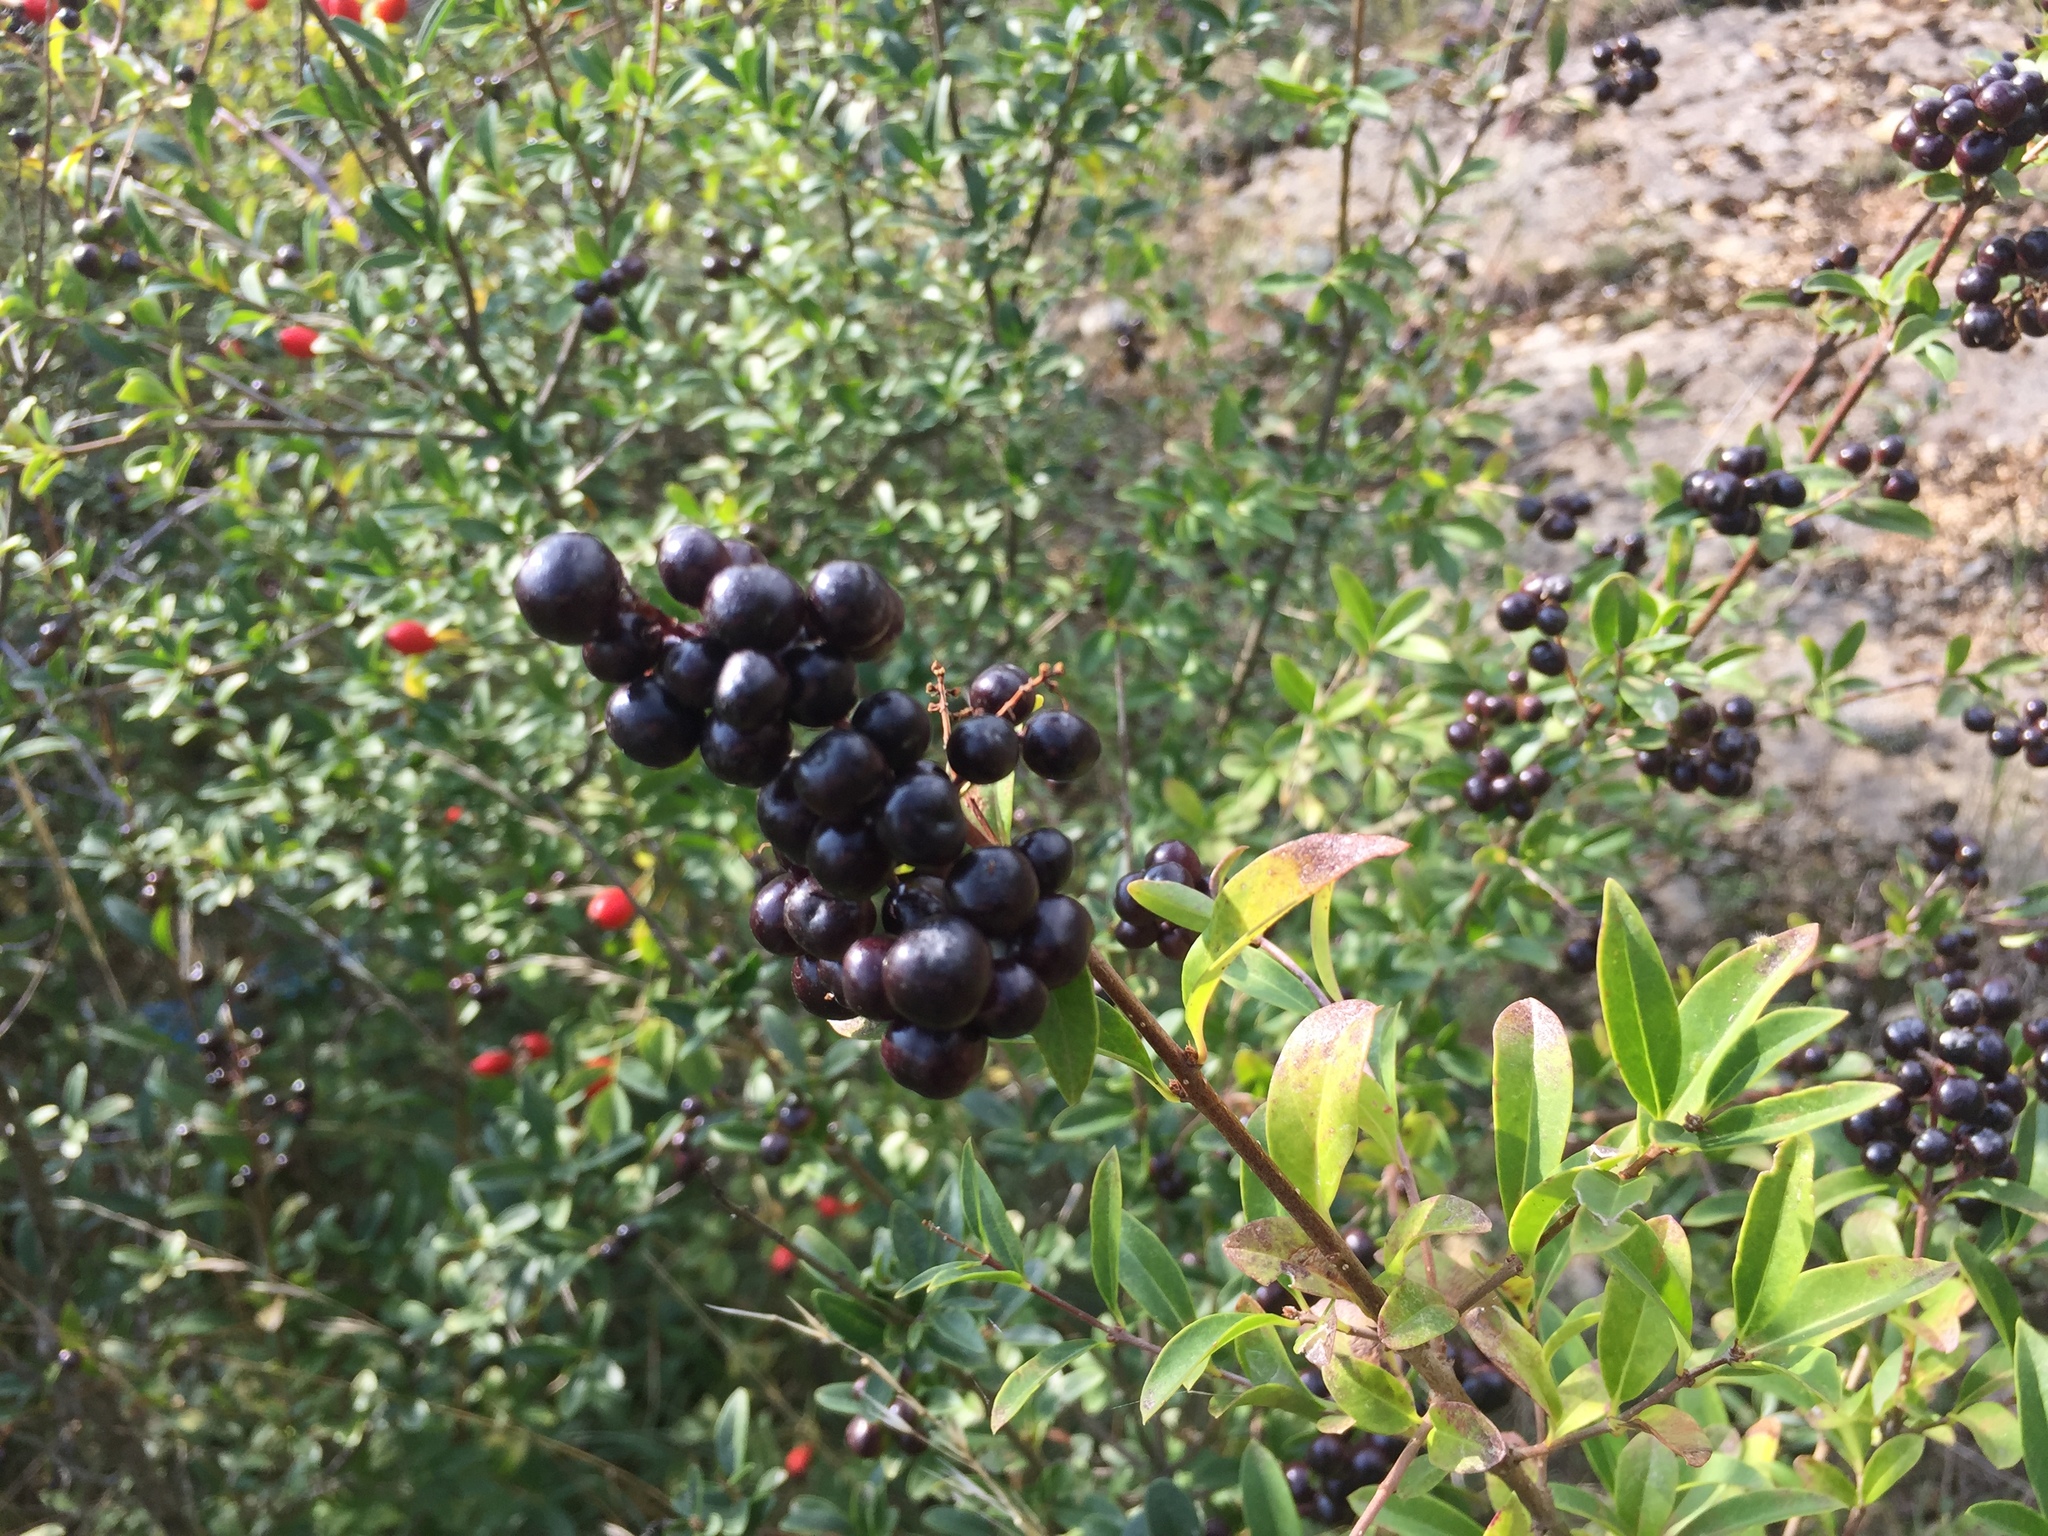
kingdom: Plantae
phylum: Tracheophyta
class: Magnoliopsida
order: Lamiales
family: Oleaceae
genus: Ligustrum
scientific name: Ligustrum vulgare
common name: Wild privet
